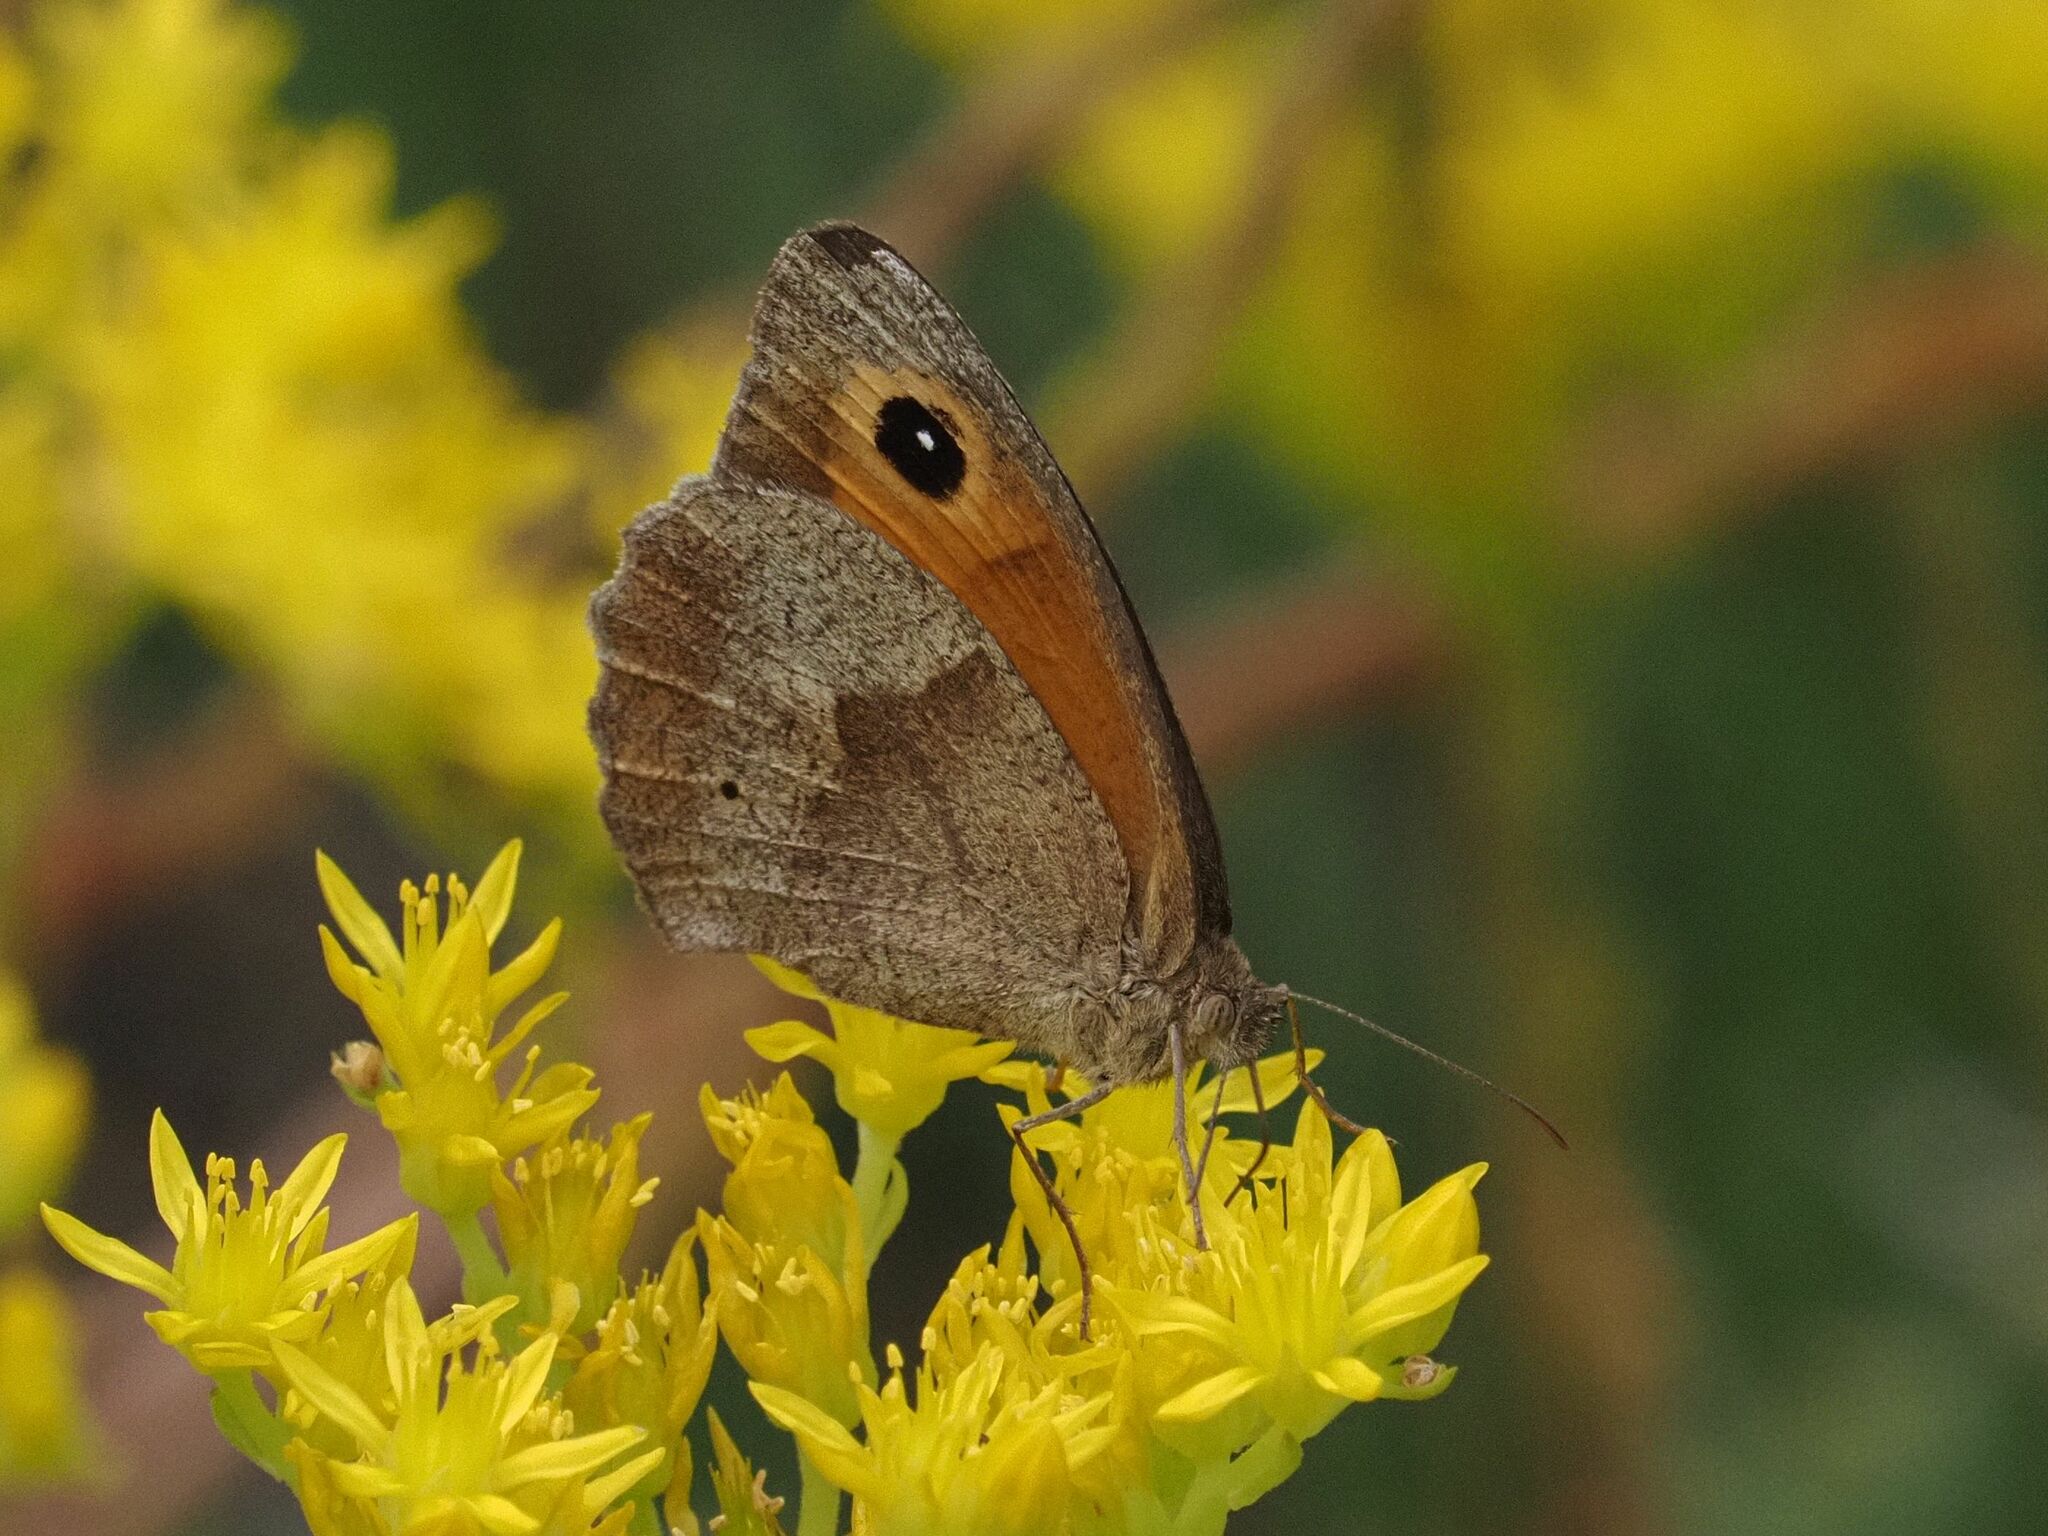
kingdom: Animalia
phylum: Arthropoda
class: Insecta
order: Lepidoptera
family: Nymphalidae
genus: Maniola
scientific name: Maniola jurtina
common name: Meadow brown
